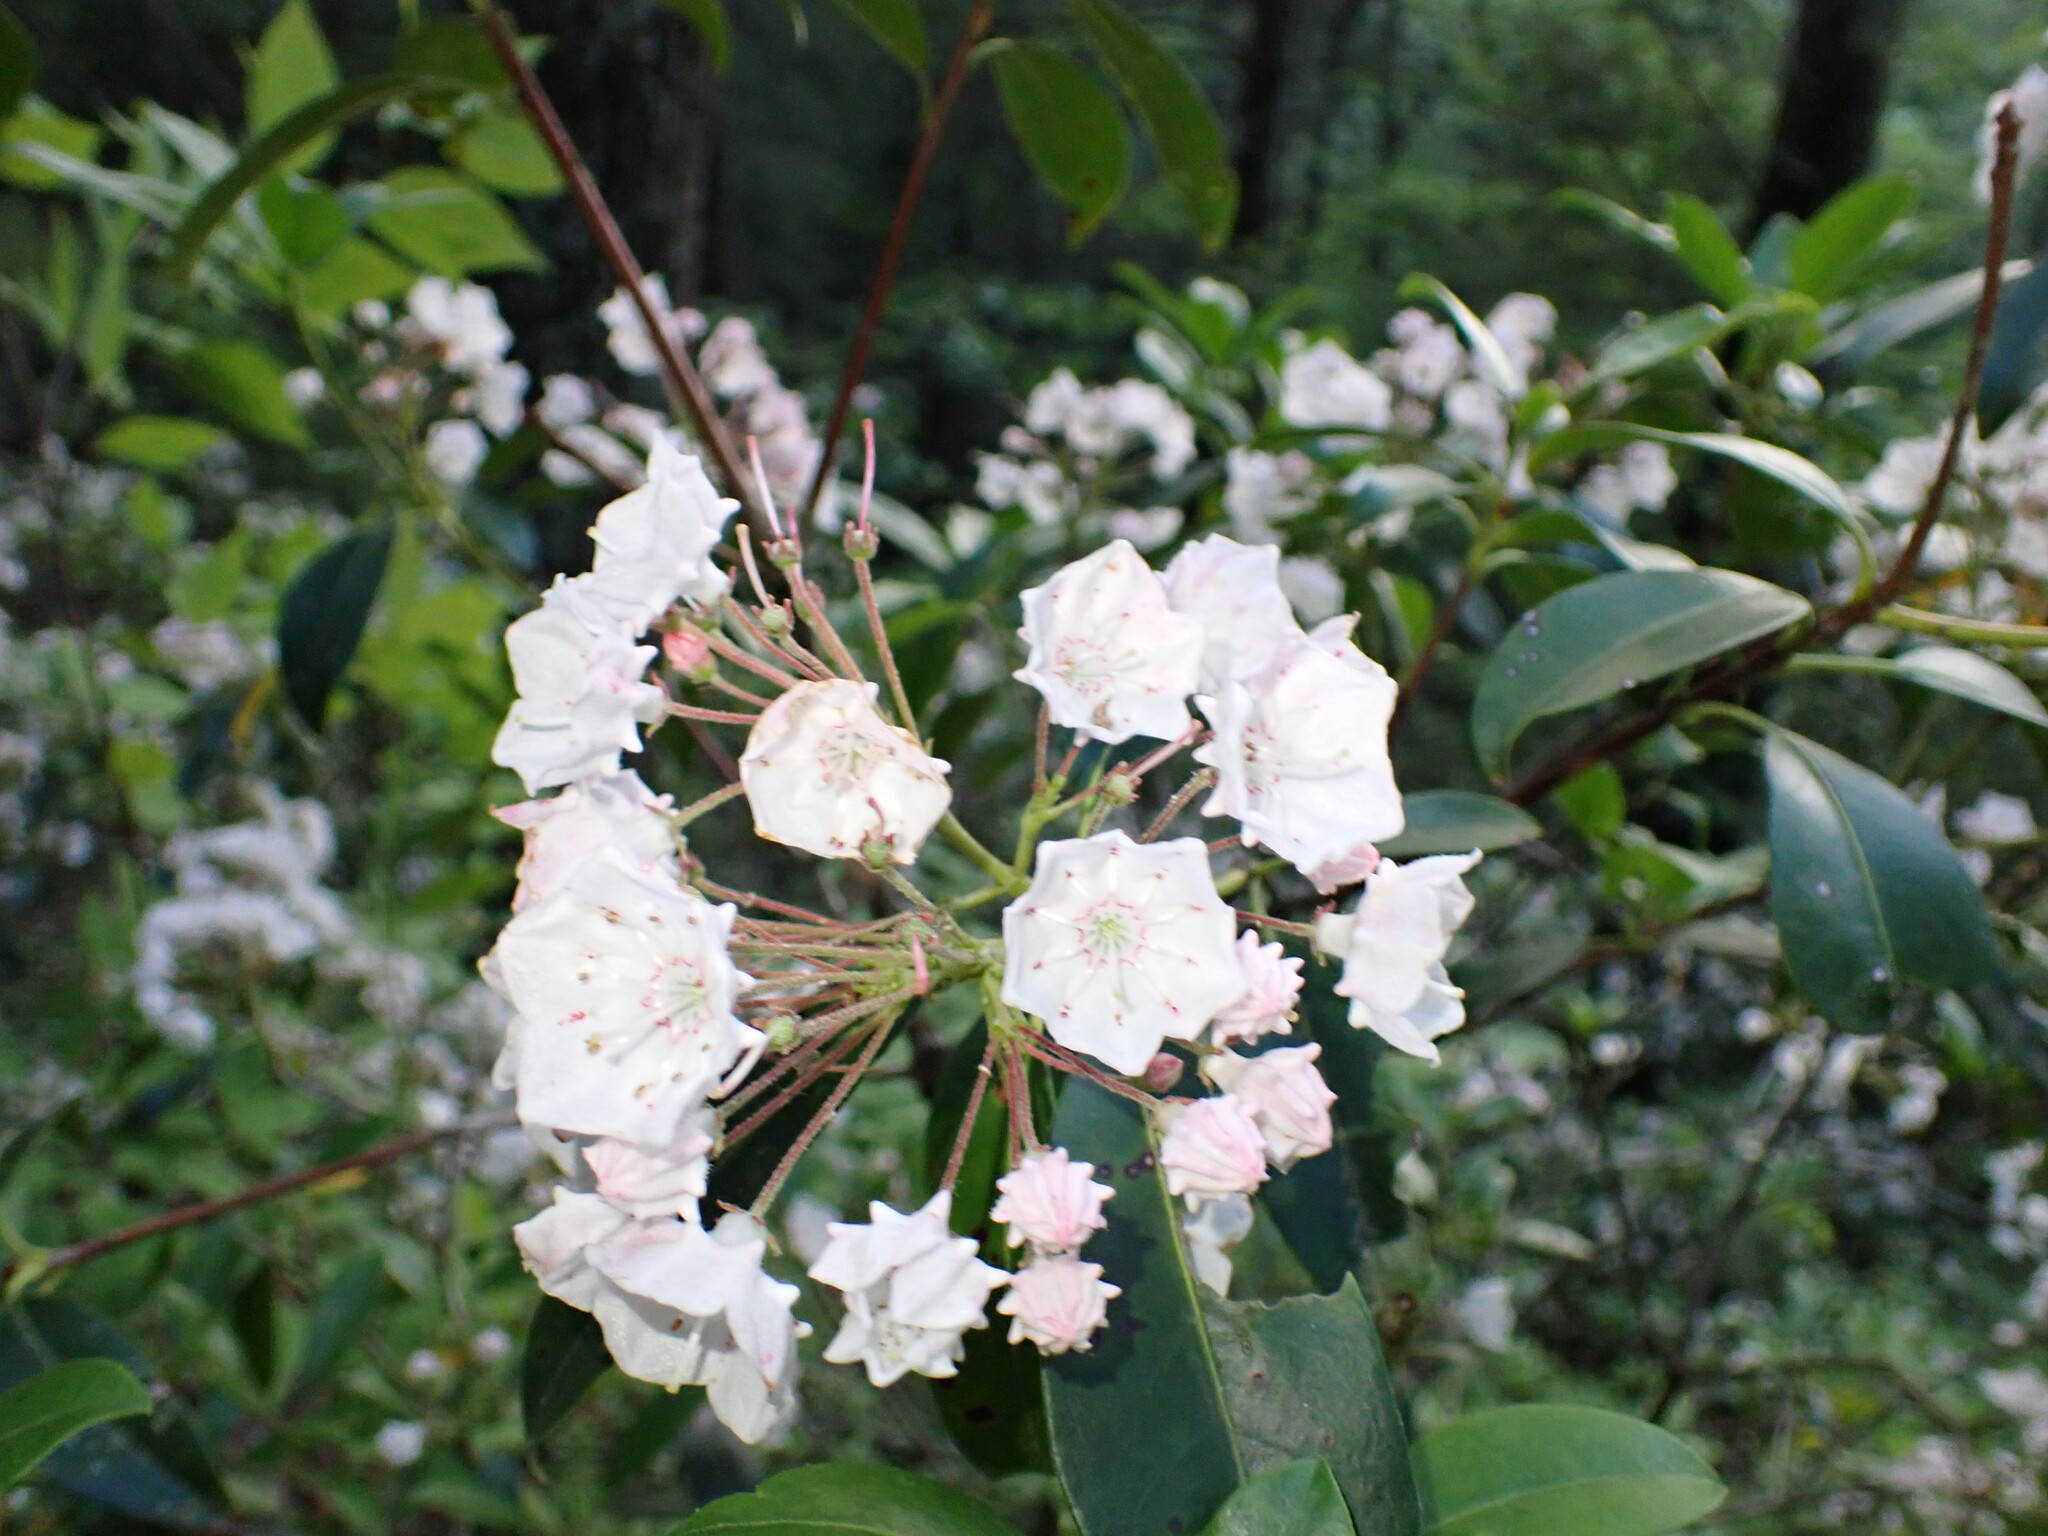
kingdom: Plantae
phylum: Tracheophyta
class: Magnoliopsida
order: Ericales
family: Ericaceae
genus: Kalmia
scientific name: Kalmia latifolia
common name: Mountain-laurel
